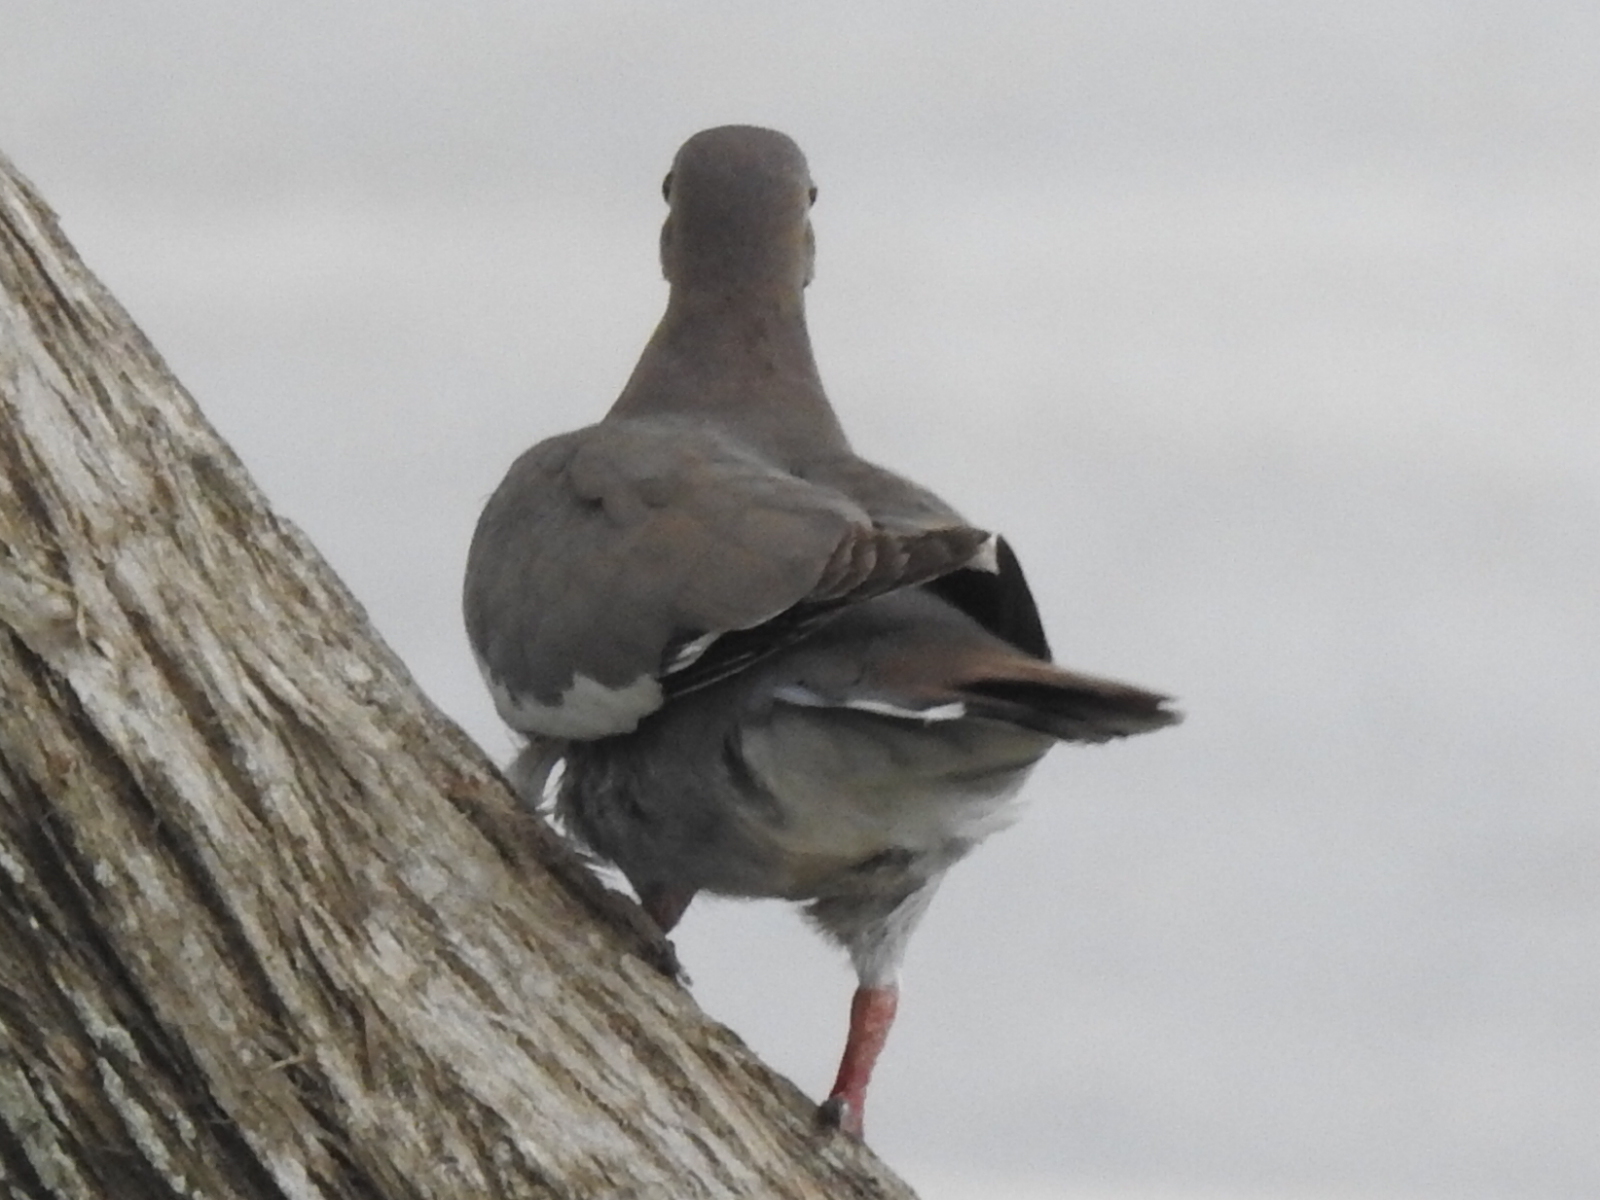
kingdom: Animalia
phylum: Chordata
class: Aves
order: Columbiformes
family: Columbidae
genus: Zenaida
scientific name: Zenaida asiatica
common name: White-winged dove
